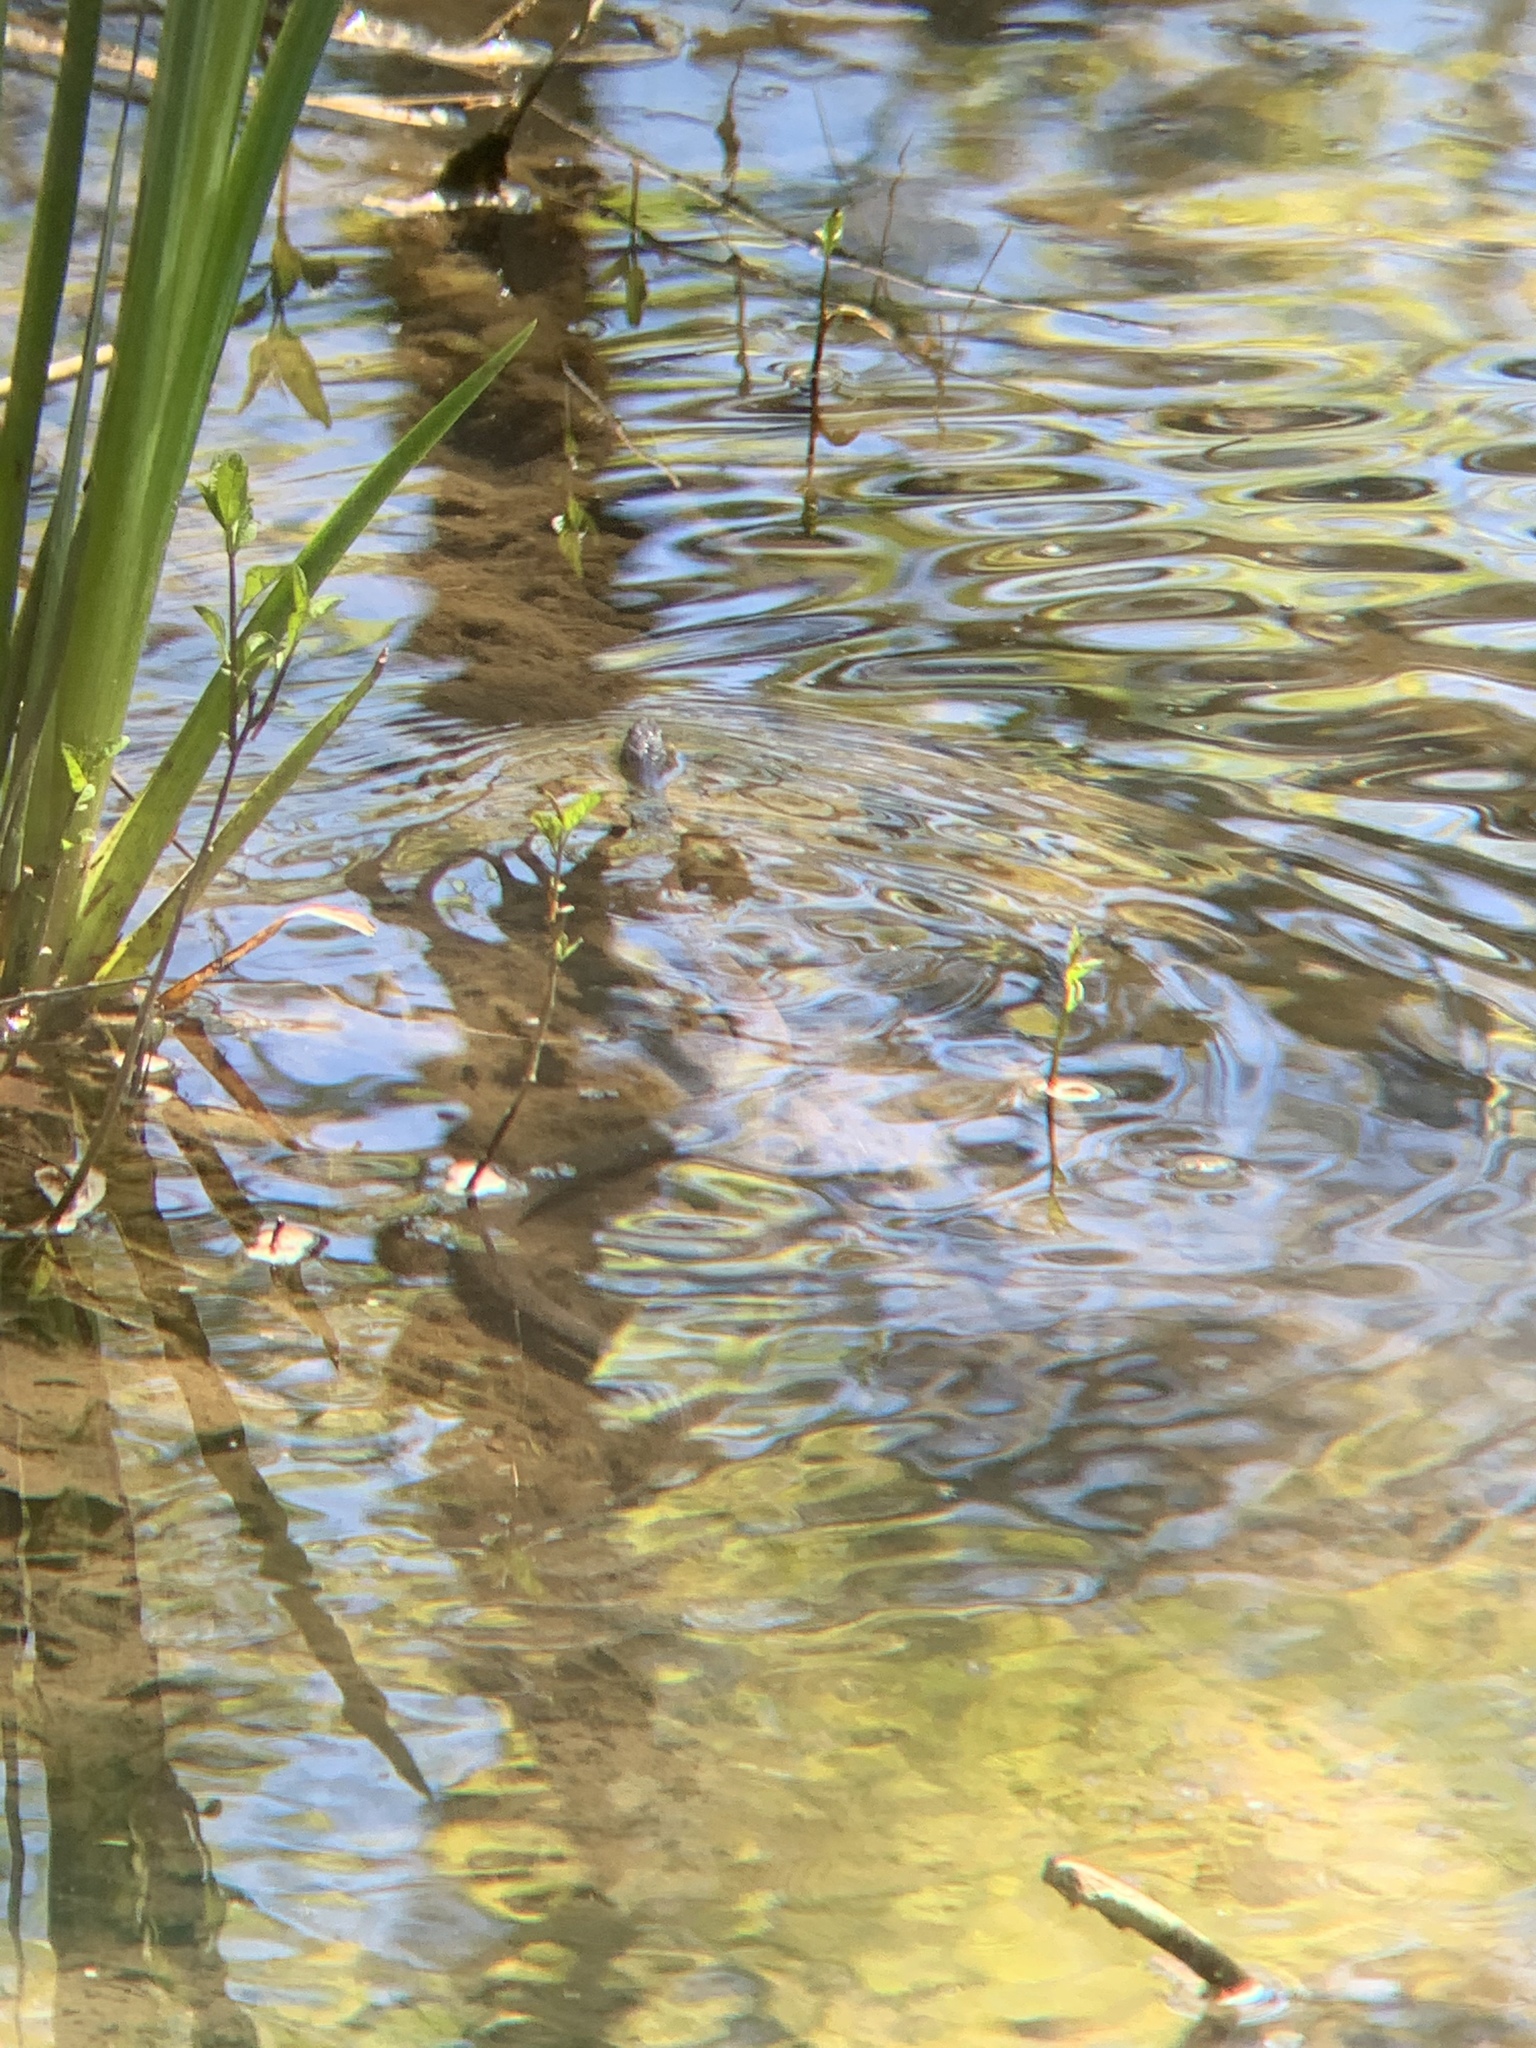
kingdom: Animalia
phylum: Chordata
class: Squamata
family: Colubridae
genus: Nerodia
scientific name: Nerodia sipedon
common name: Northern water snake
